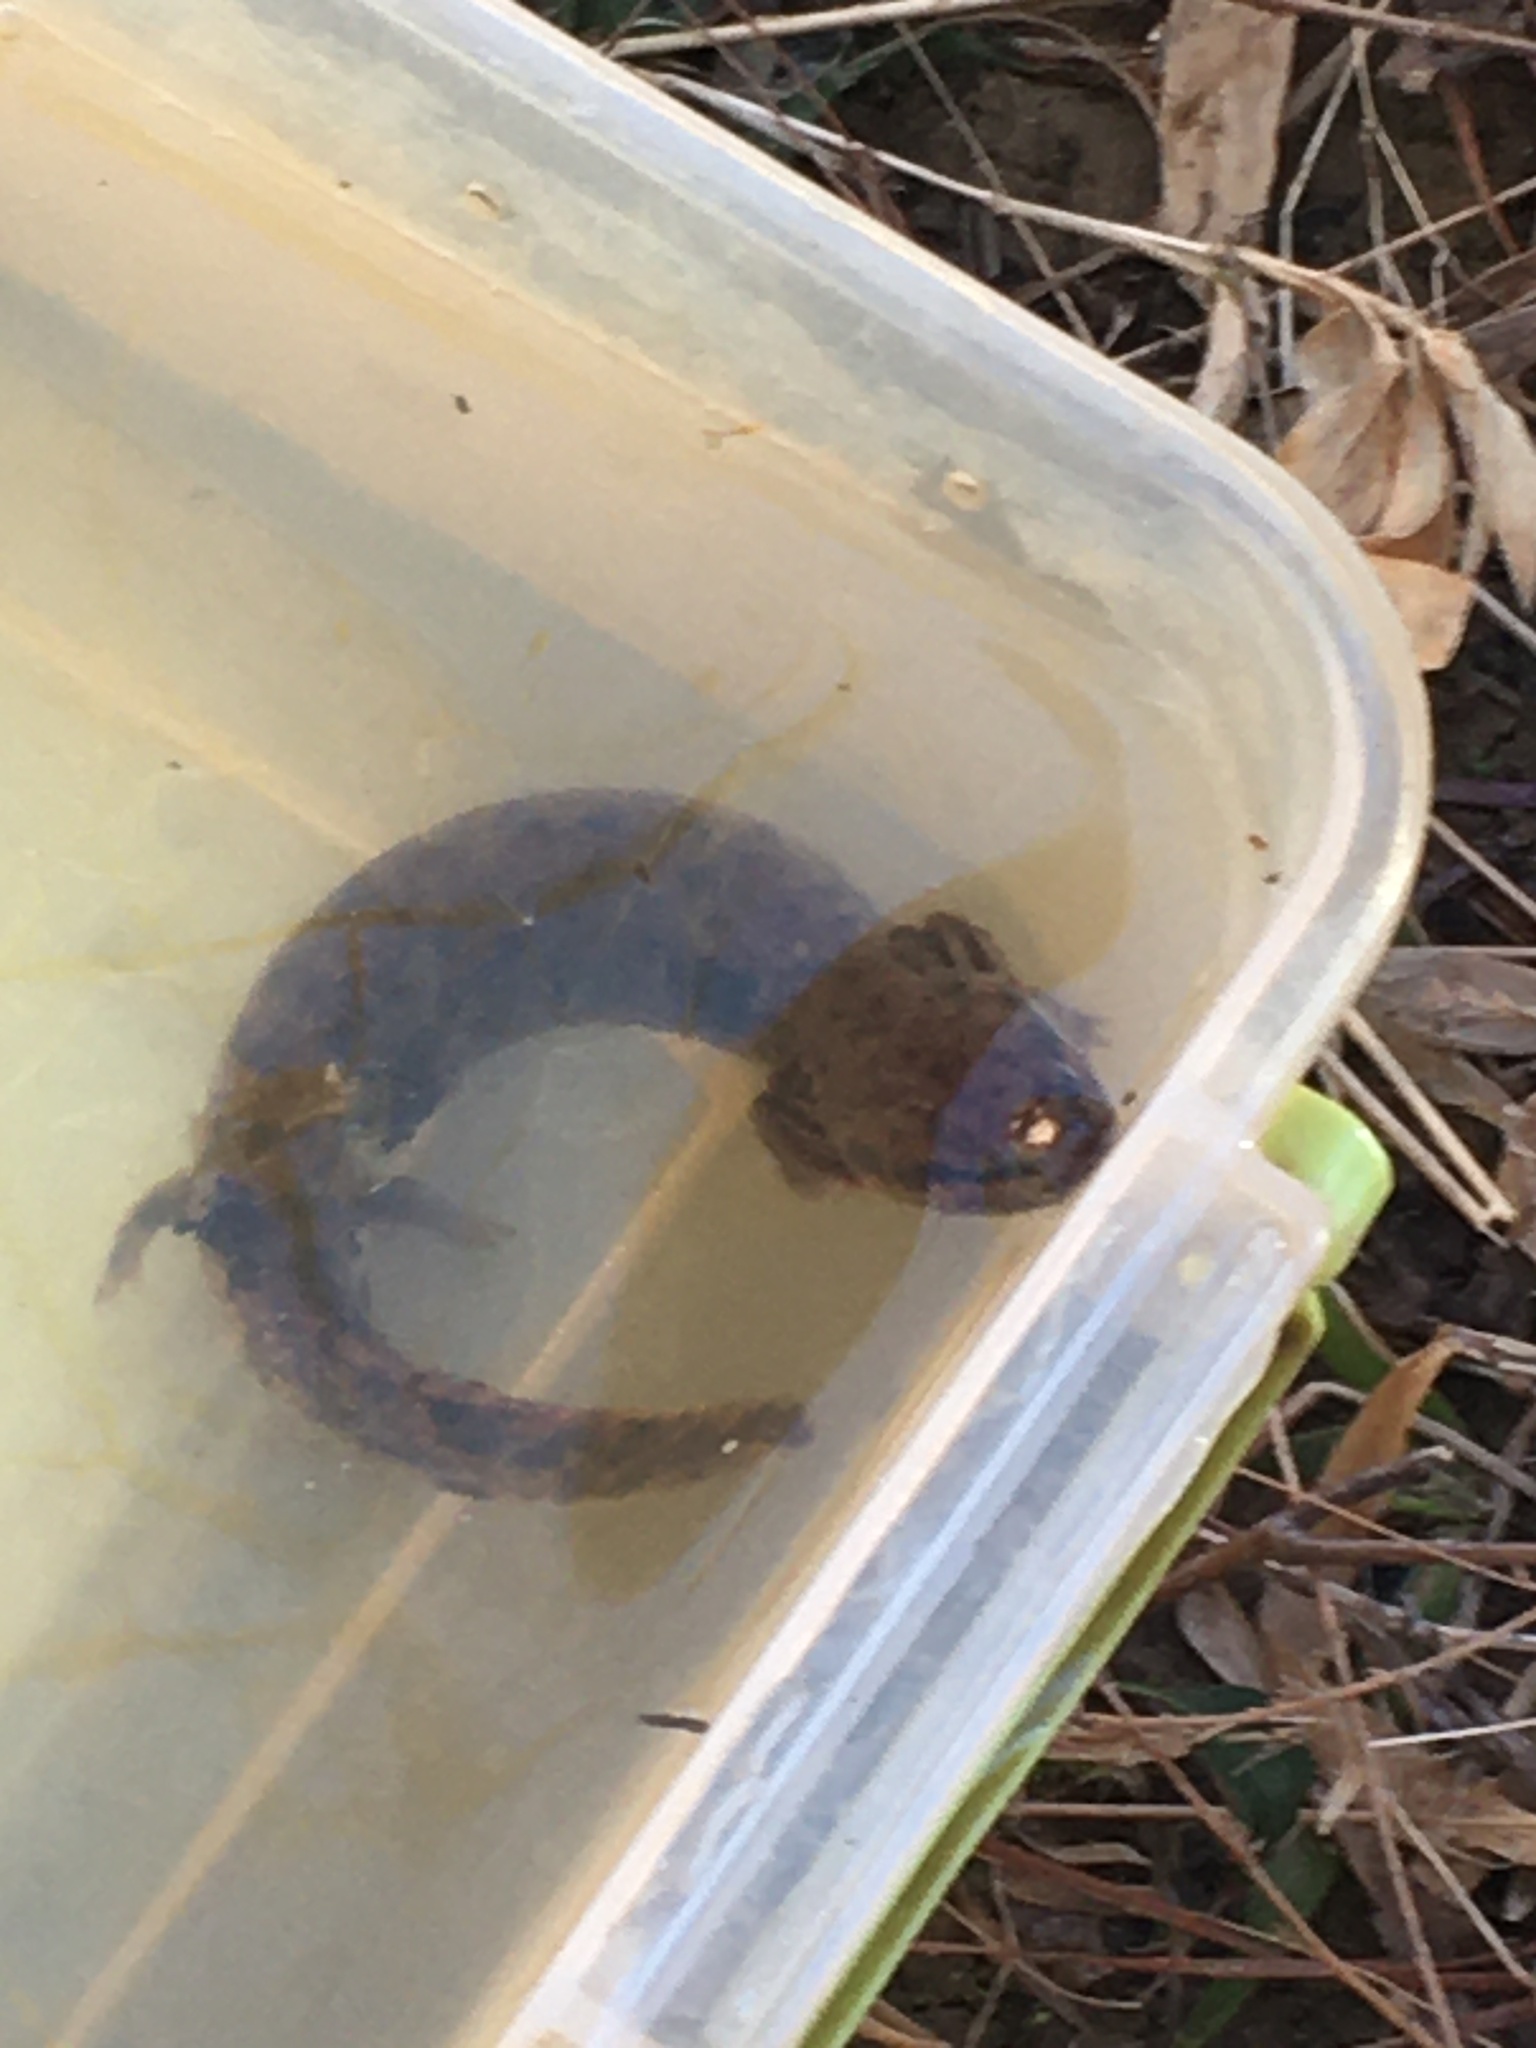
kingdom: Animalia
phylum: Chordata
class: Amphibia
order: Caudata
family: Proteidae
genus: Necturus
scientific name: Necturus lewisi
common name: Neuse river waterdog
